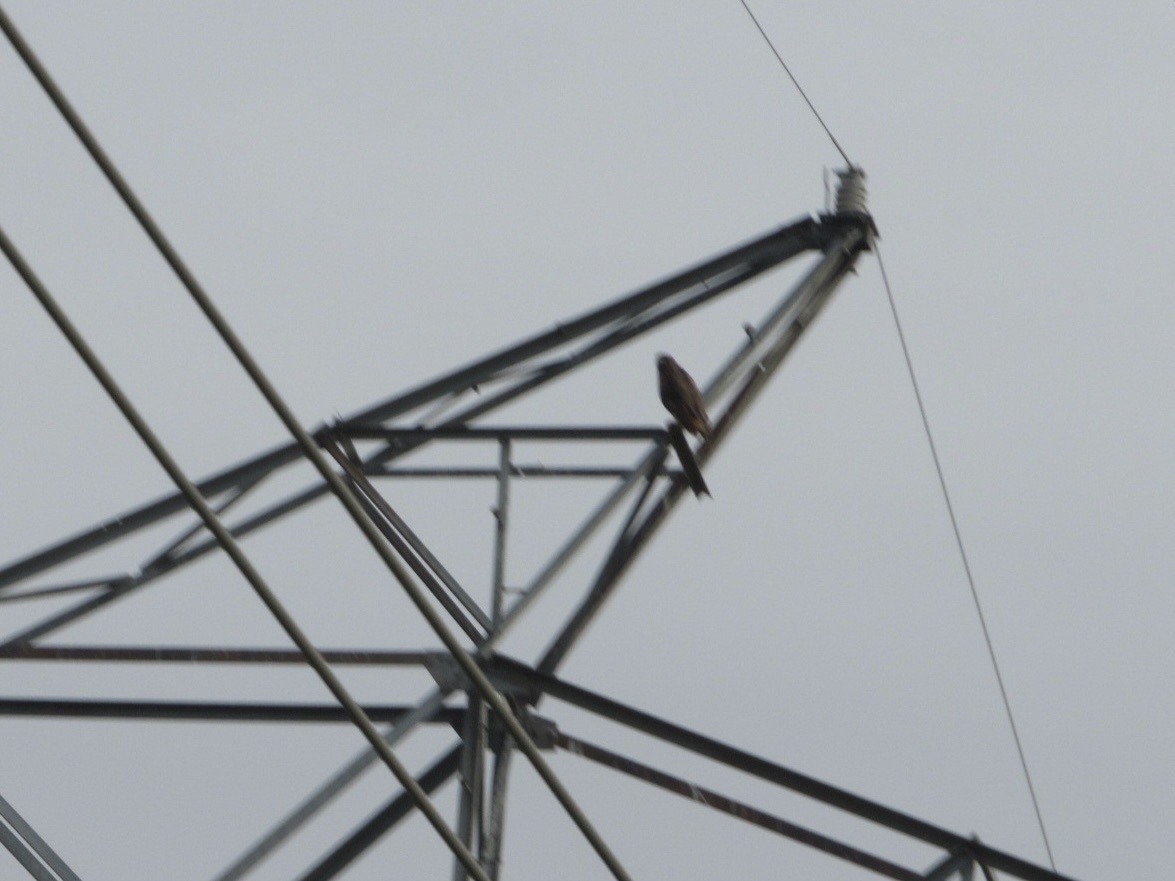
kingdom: Animalia
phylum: Chordata
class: Aves
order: Accipitriformes
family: Accipitridae
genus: Buteo
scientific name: Buteo jamaicensis
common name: Red-tailed hawk
